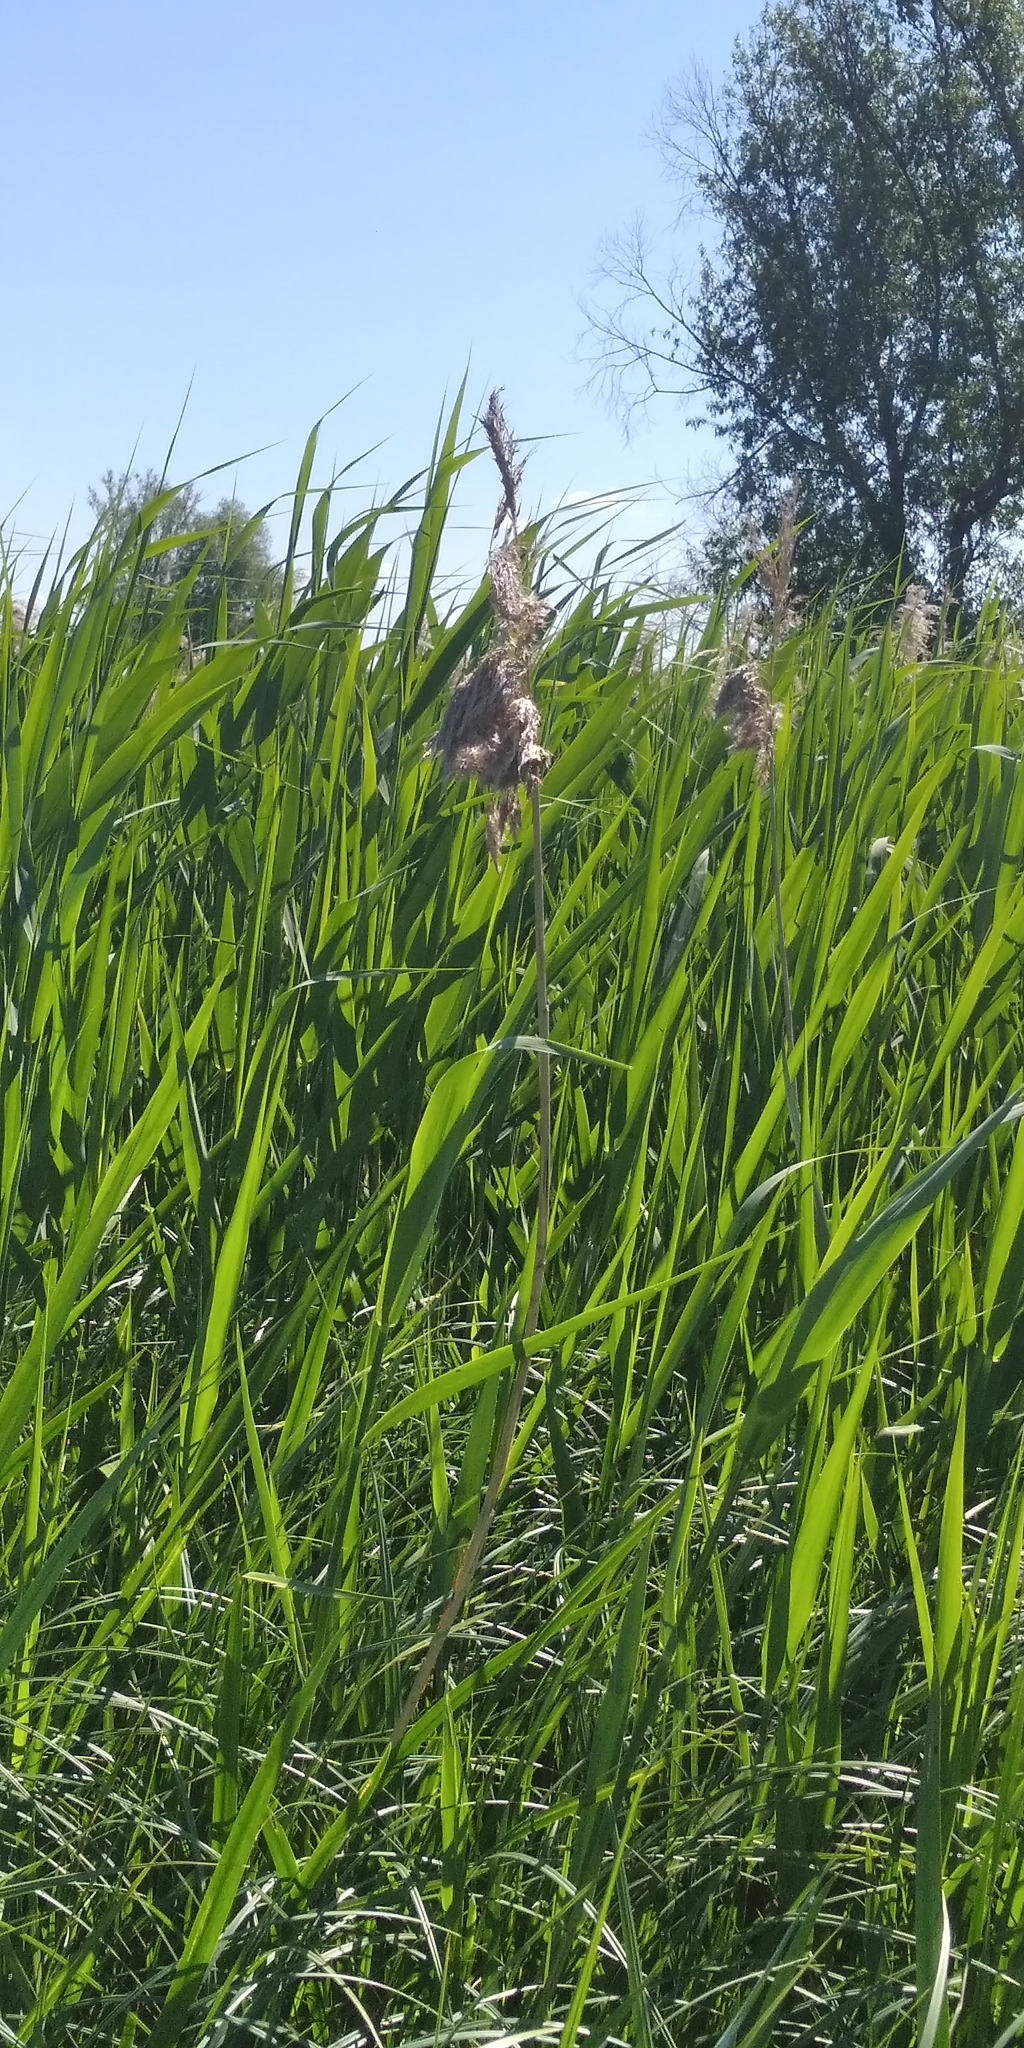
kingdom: Plantae
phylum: Tracheophyta
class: Liliopsida
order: Poales
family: Poaceae
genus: Phragmites
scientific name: Phragmites australis
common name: Common reed
